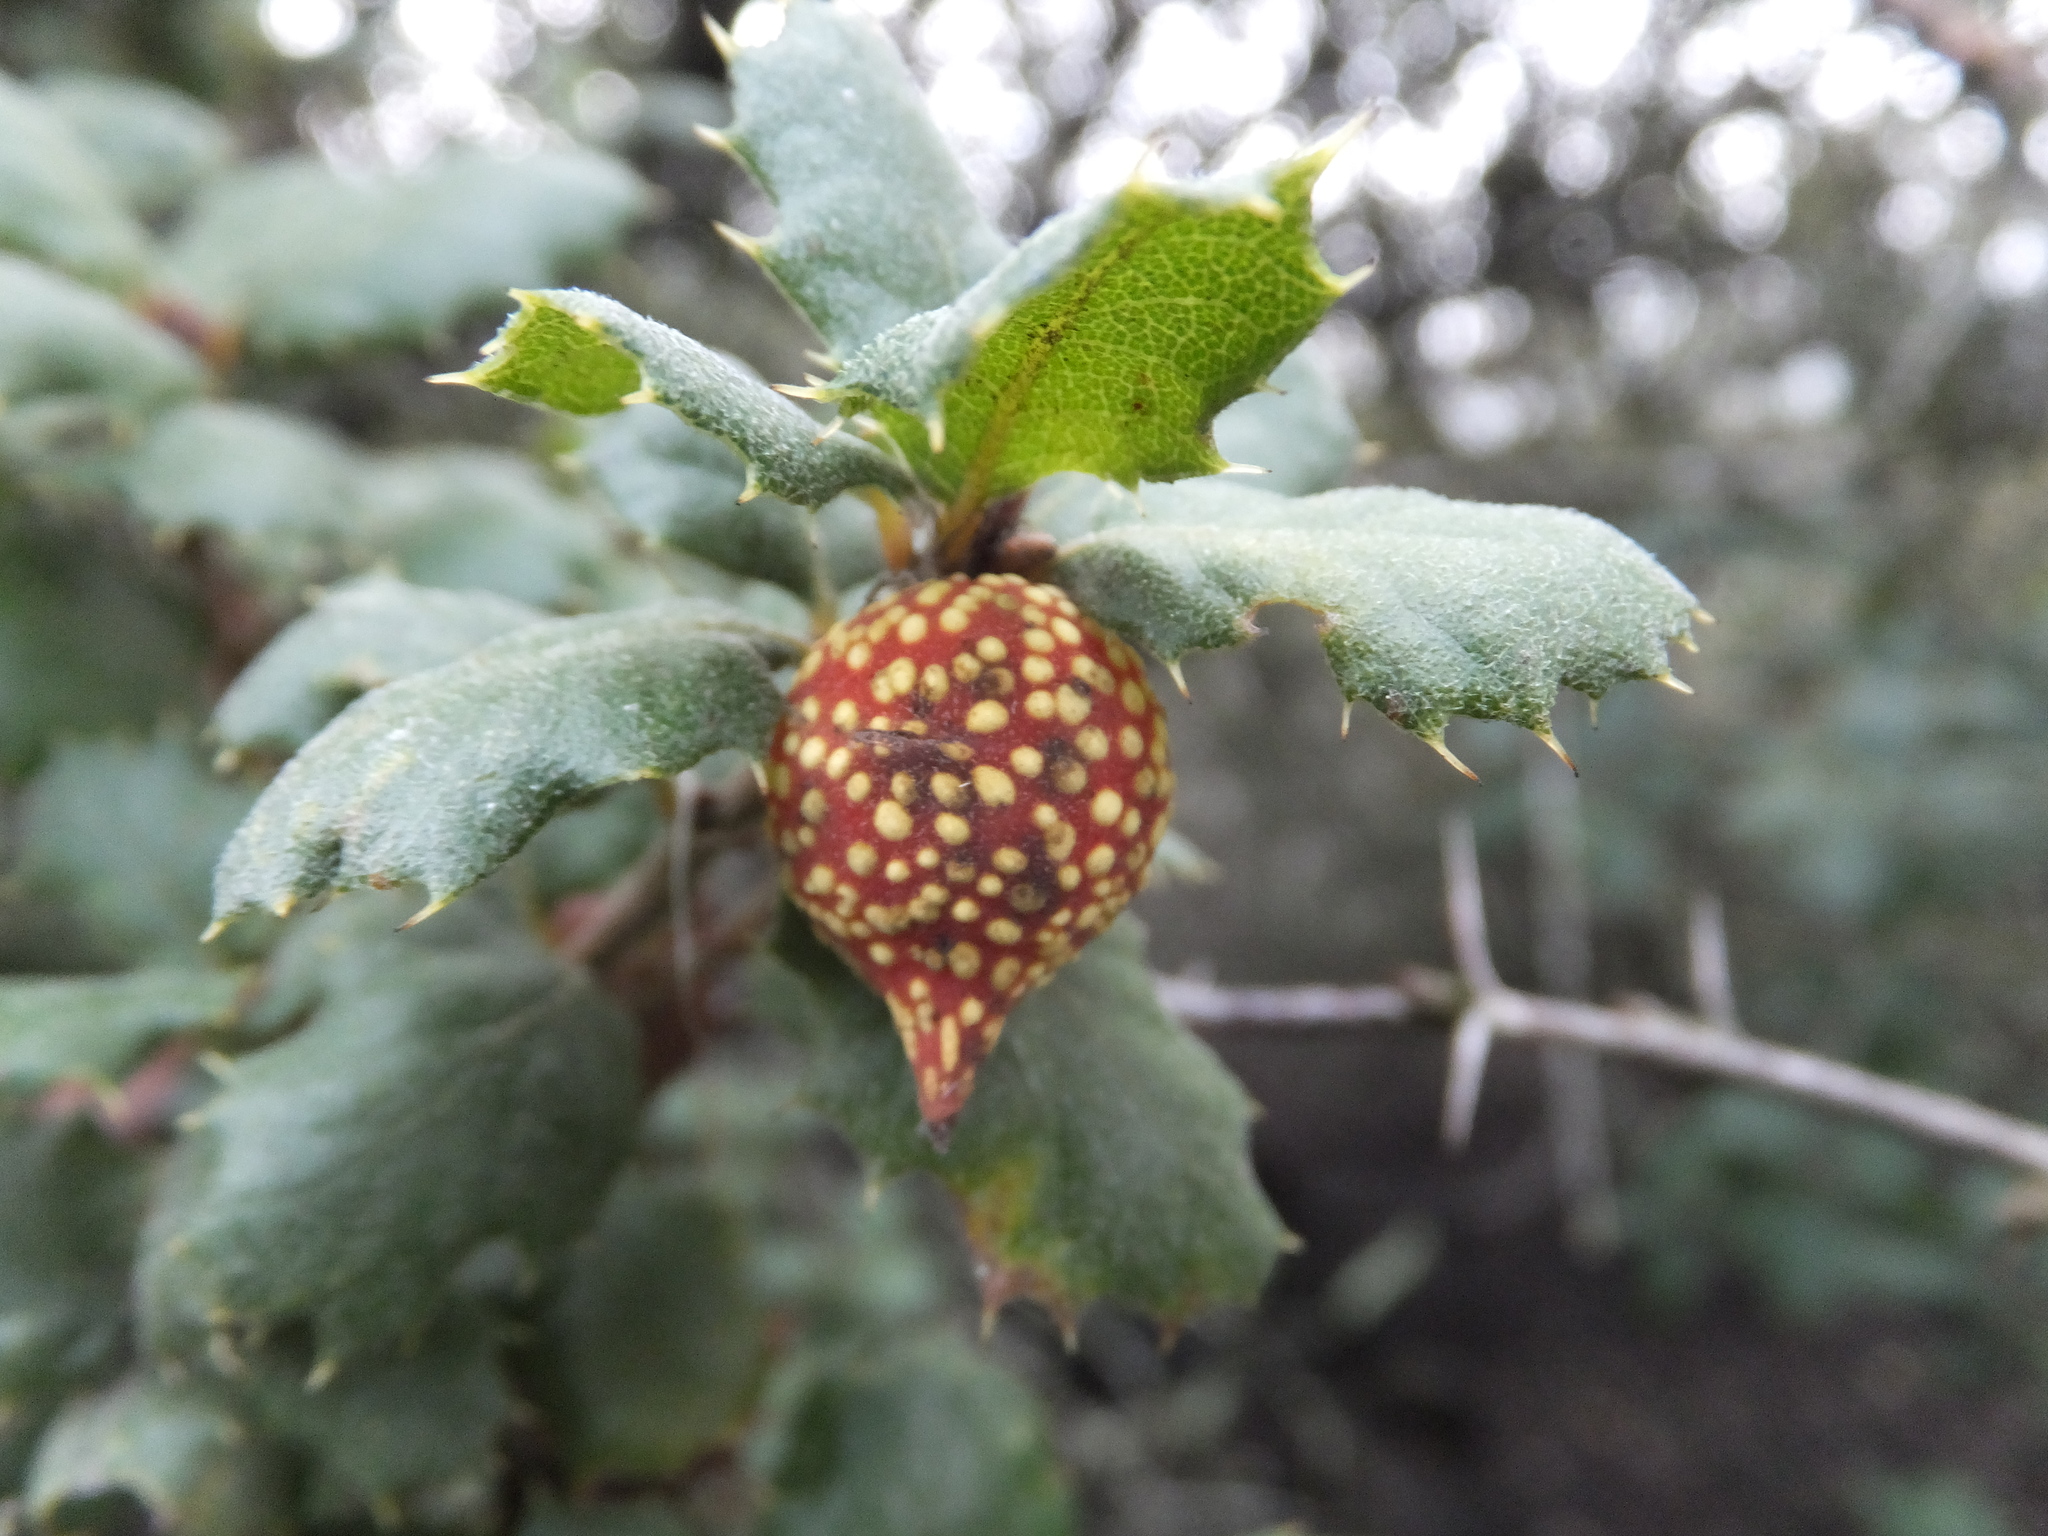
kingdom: Plantae
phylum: Tracheophyta
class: Magnoliopsida
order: Fagales
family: Fagaceae
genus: Quercus
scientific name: Quercus durata
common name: Leather oak
